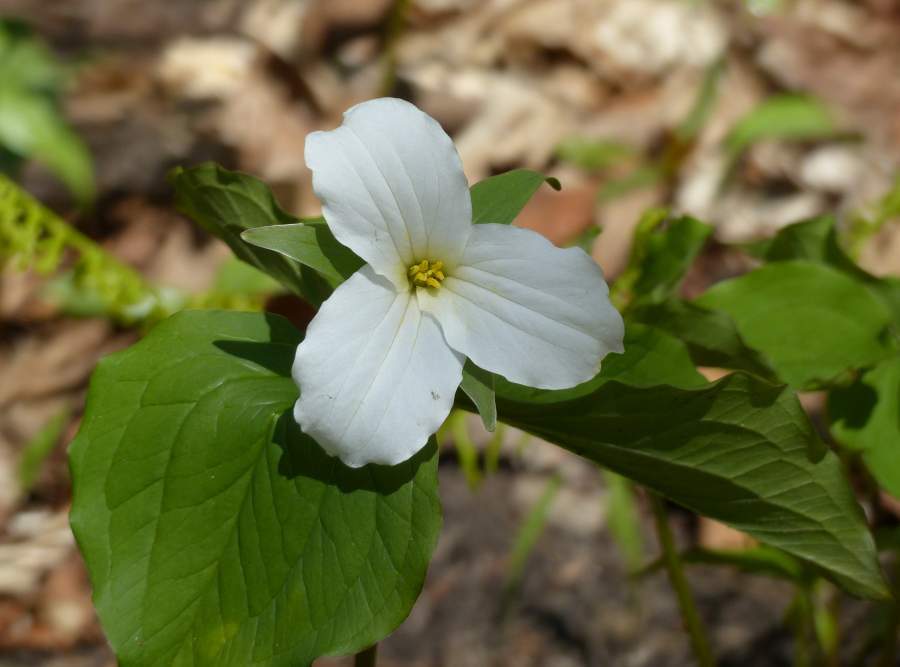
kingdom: Plantae
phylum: Tracheophyta
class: Liliopsida
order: Liliales
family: Melanthiaceae
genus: Trillium
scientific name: Trillium grandiflorum
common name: Great white trillium
